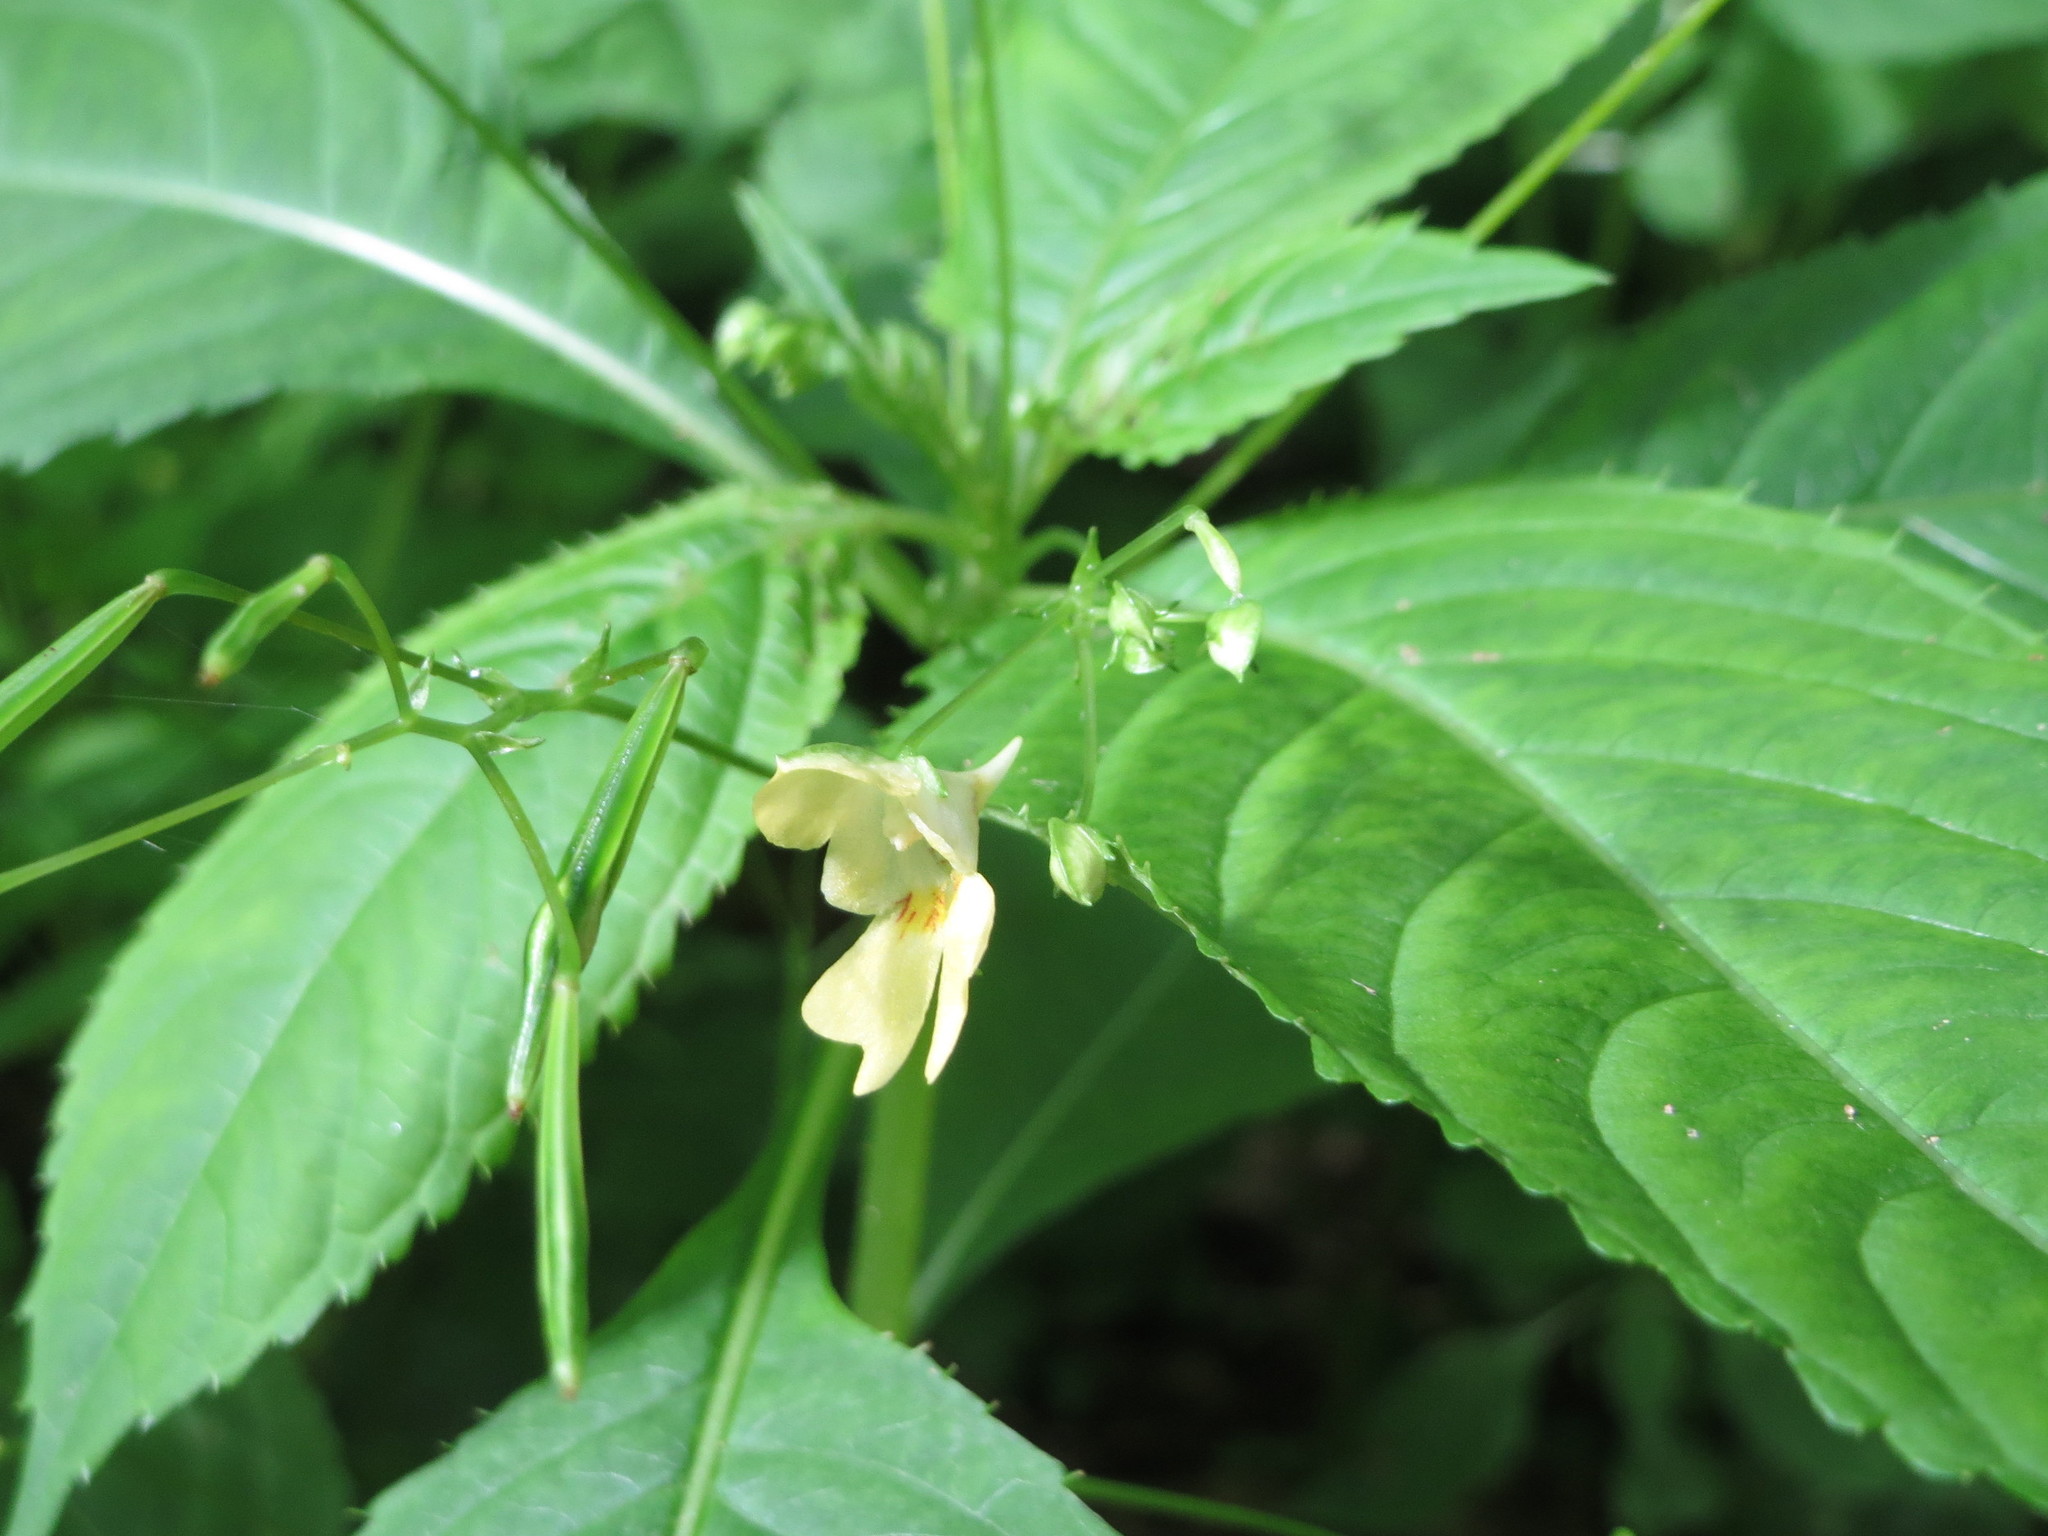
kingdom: Plantae
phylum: Tracheophyta
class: Magnoliopsida
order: Ericales
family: Balsaminaceae
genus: Impatiens
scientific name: Impatiens parviflora
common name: Small balsam
